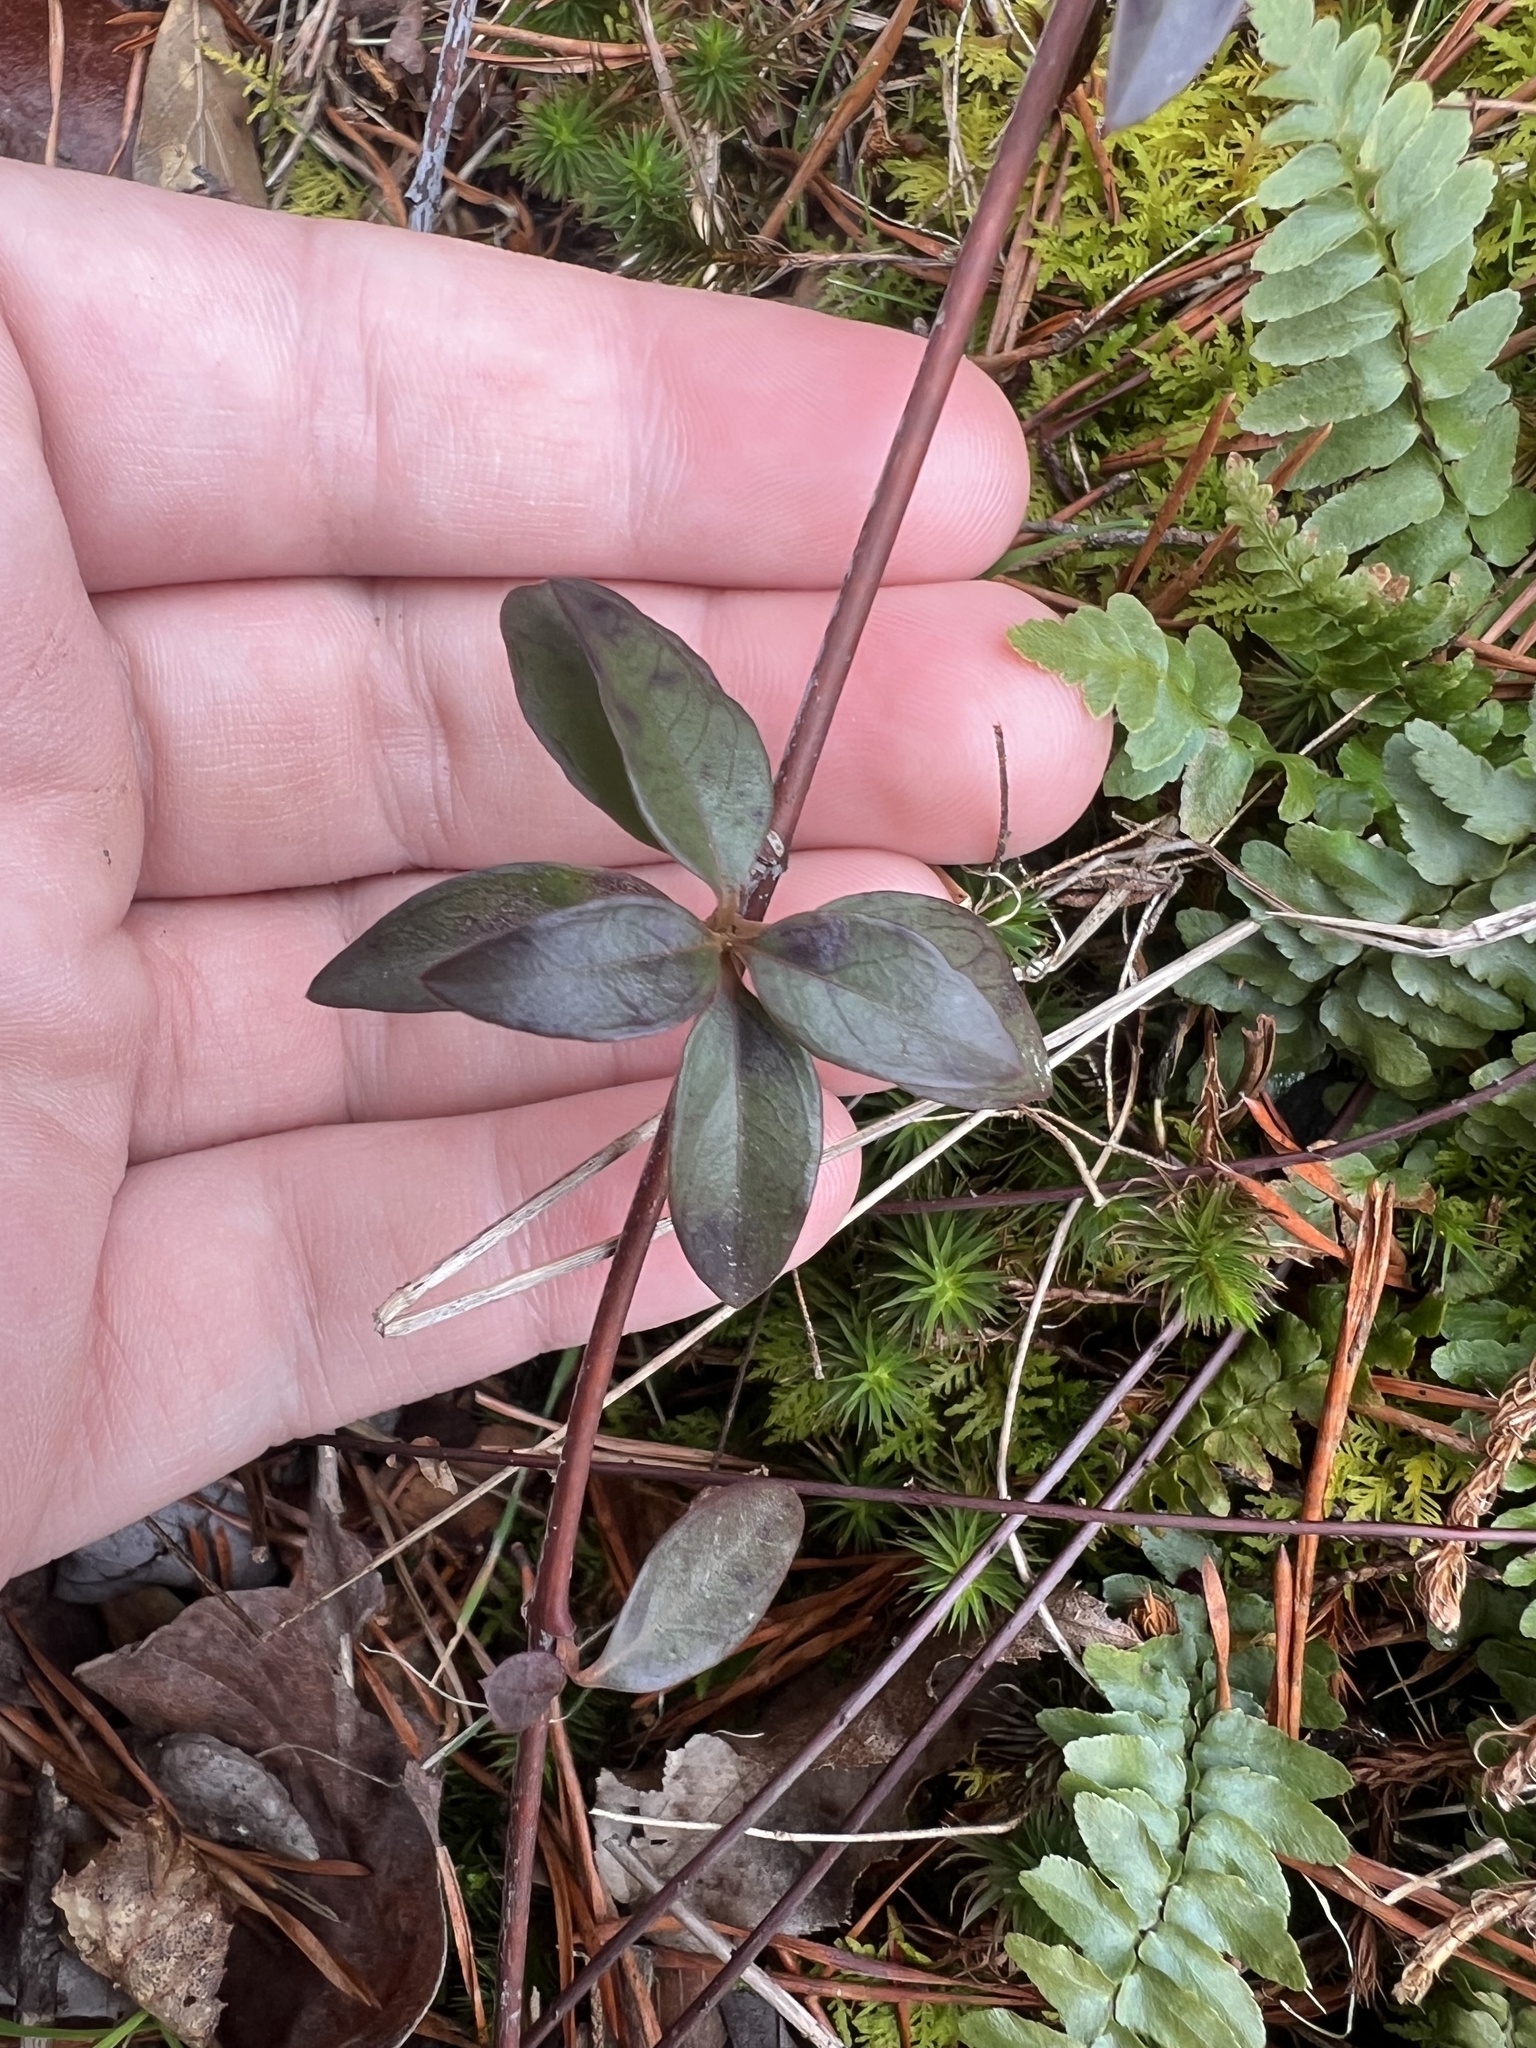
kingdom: Plantae
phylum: Tracheophyta
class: Magnoliopsida
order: Gentianales
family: Gelsemiaceae
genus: Gelsemium
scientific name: Gelsemium sempervirens
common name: Carolina-jasmine
